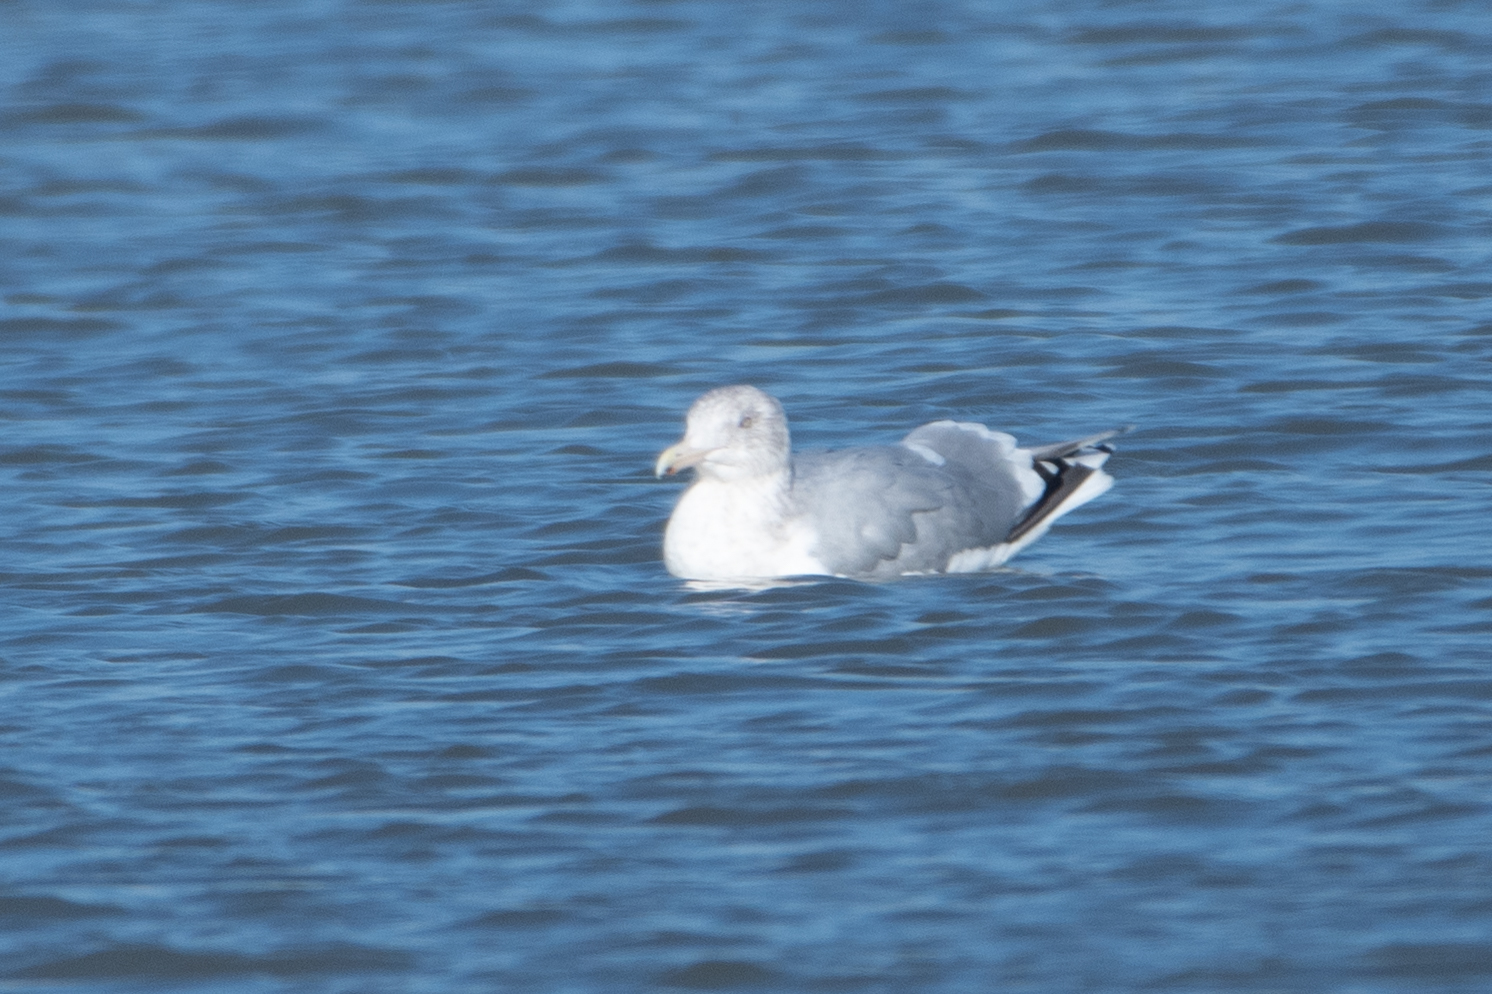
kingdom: Animalia
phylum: Chordata
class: Aves
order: Charadriiformes
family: Laridae
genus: Larus
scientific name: Larus argentatus
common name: Herring gull
